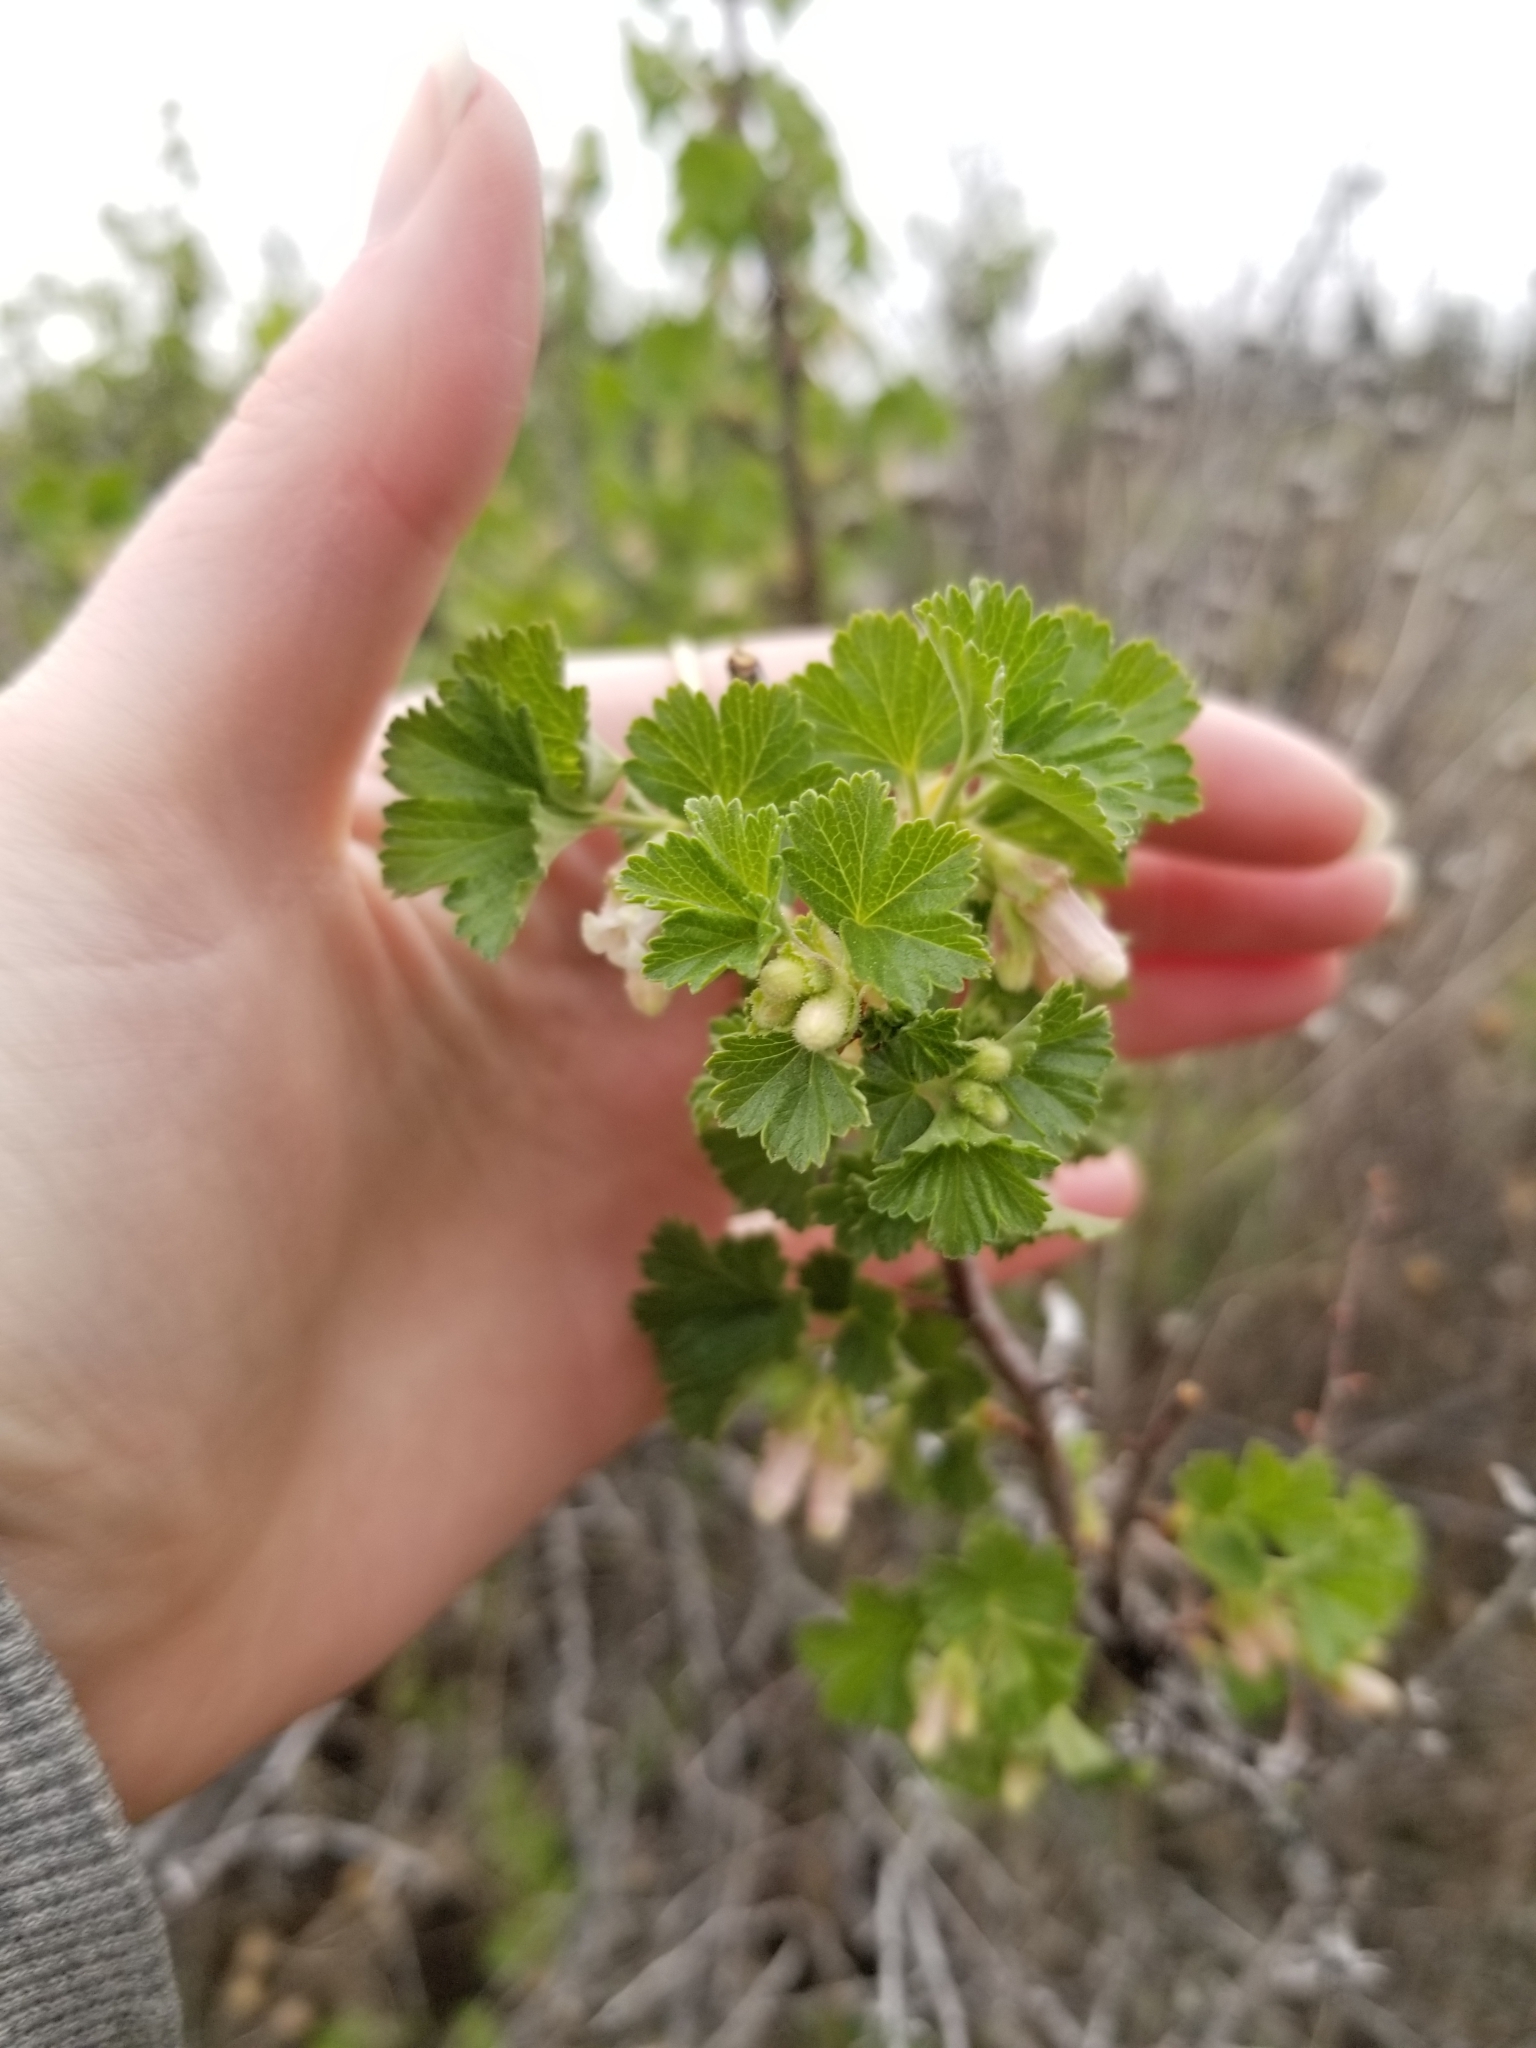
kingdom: Plantae
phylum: Tracheophyta
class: Magnoliopsida
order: Saxifragales
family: Grossulariaceae
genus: Ribes
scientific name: Ribes cereum
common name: Wax currant
